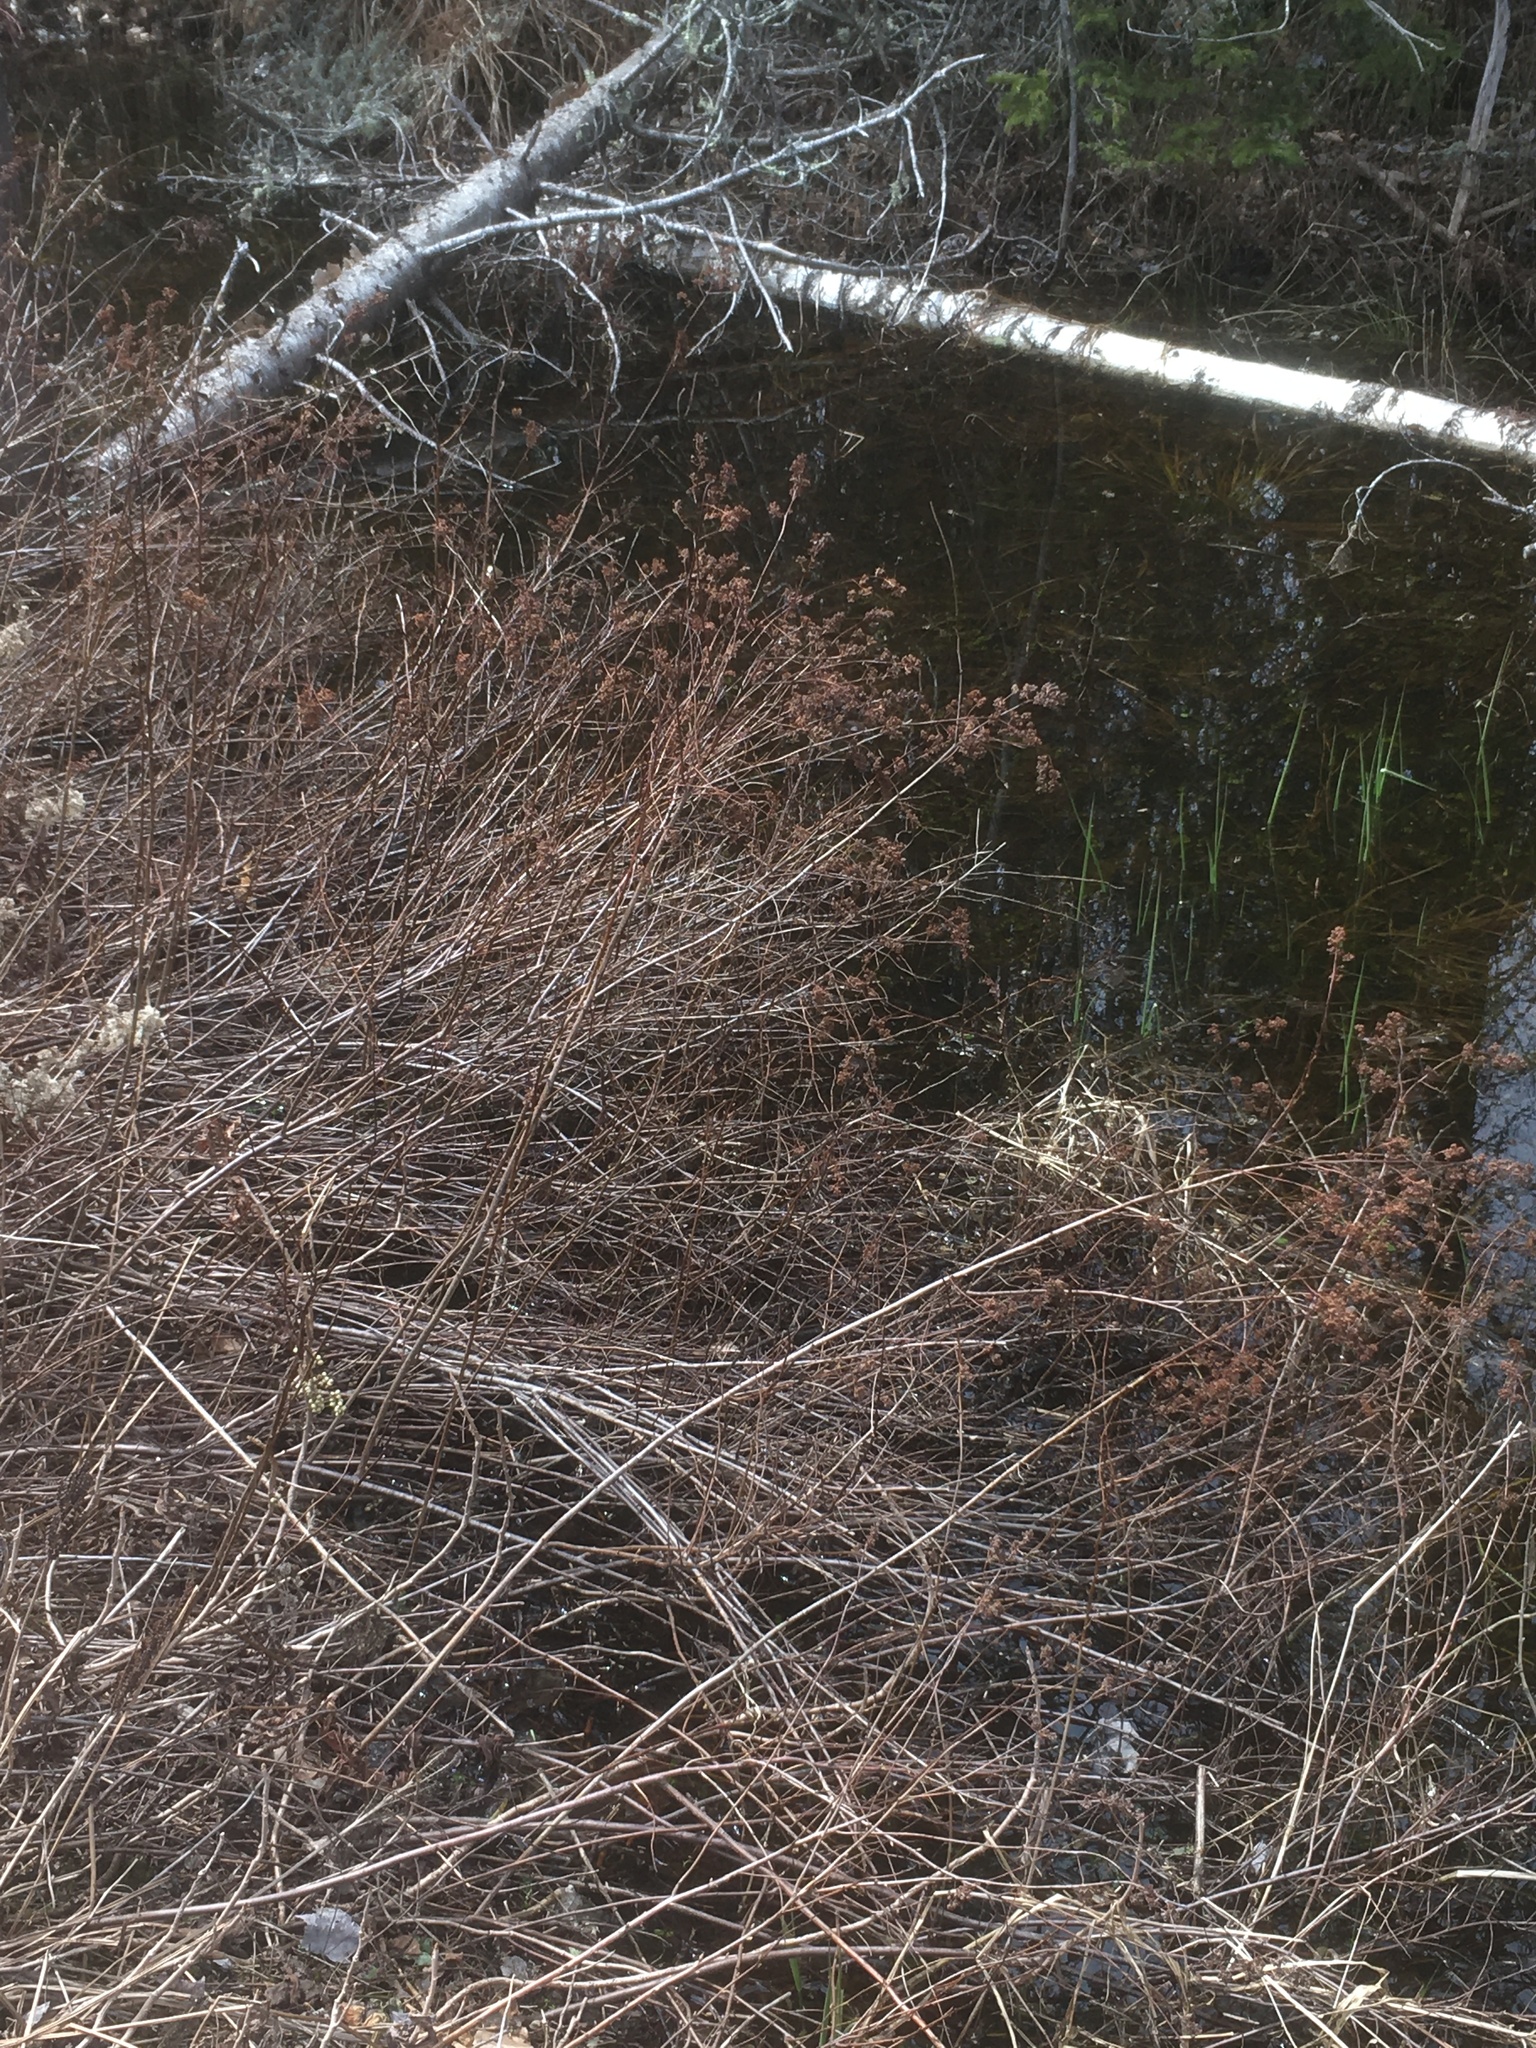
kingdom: Plantae
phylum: Tracheophyta
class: Magnoliopsida
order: Rosales
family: Rosaceae
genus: Spiraea
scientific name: Spiraea alba
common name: Pale bridewort
